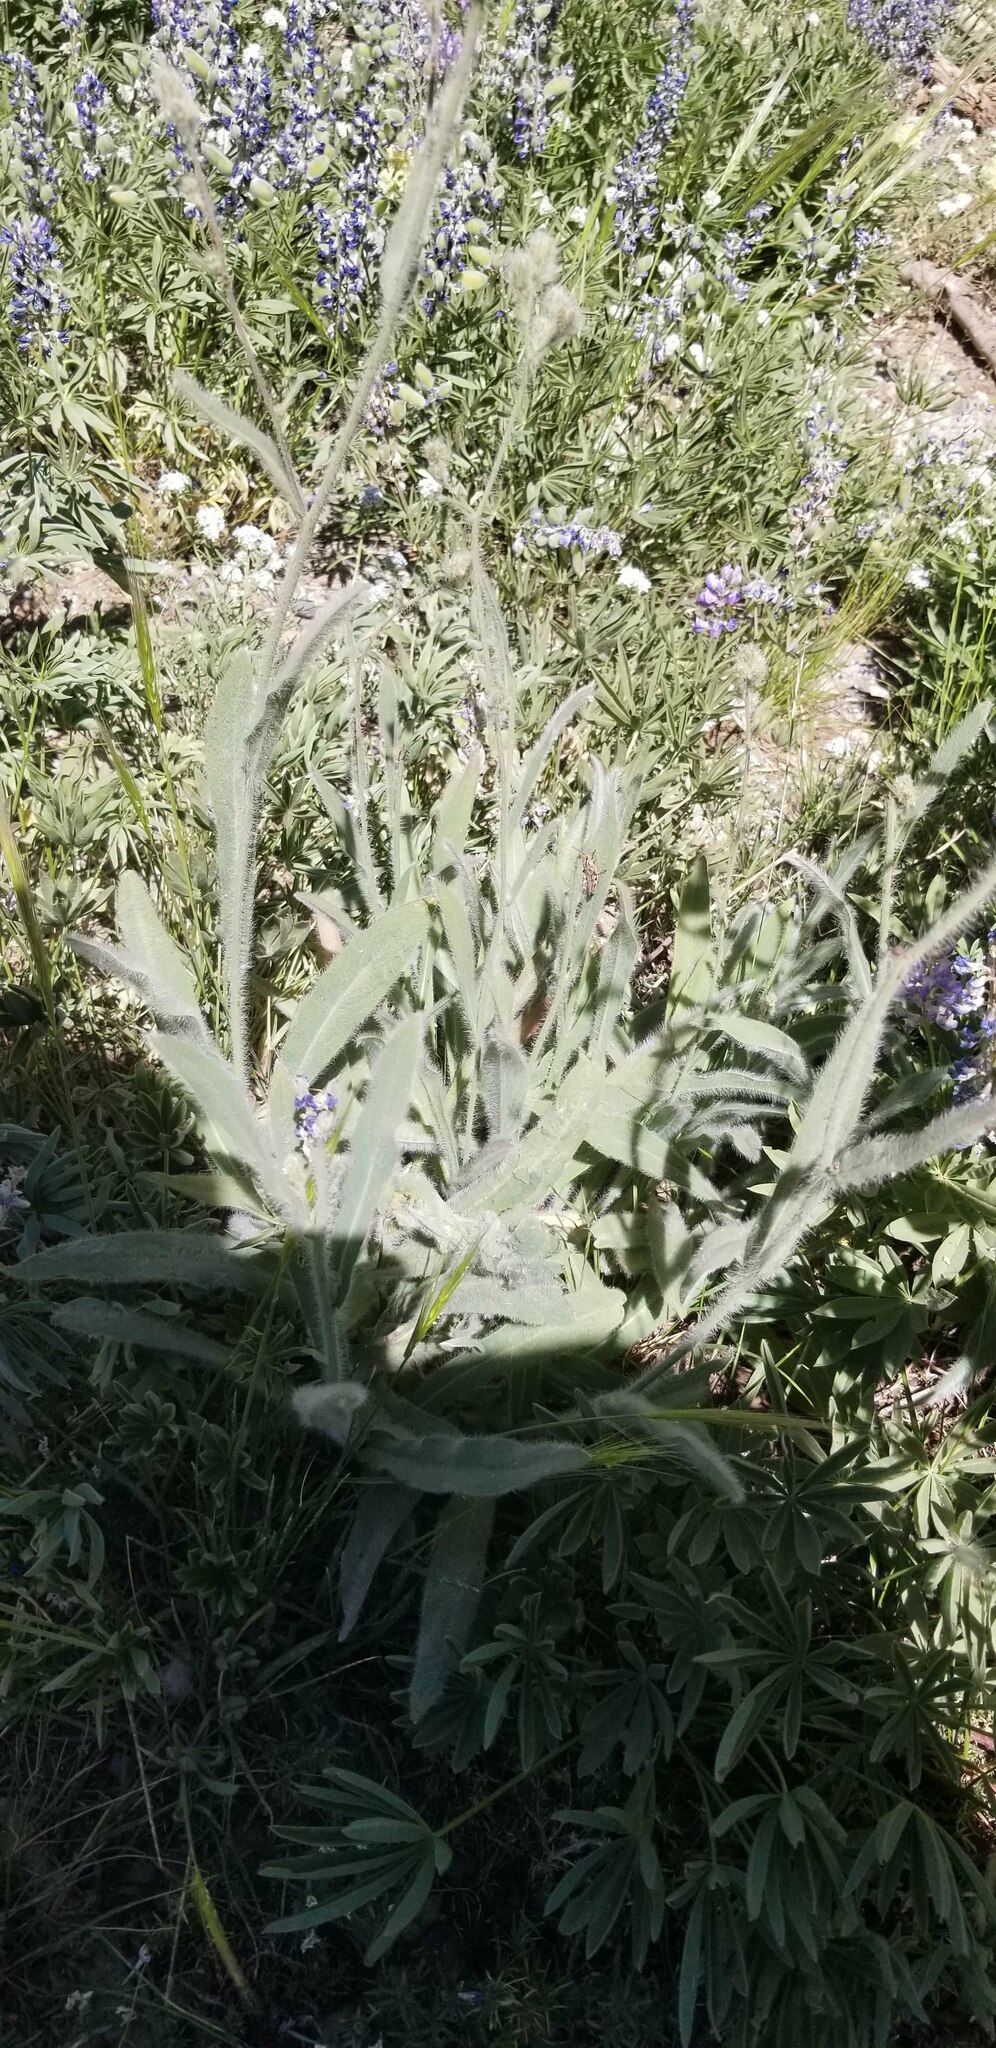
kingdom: Plantae
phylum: Tracheophyta
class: Magnoliopsida
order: Asterales
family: Asteraceae
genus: Hieracium
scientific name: Hieracium scouleri
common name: Hound's-tongue hawkweed
